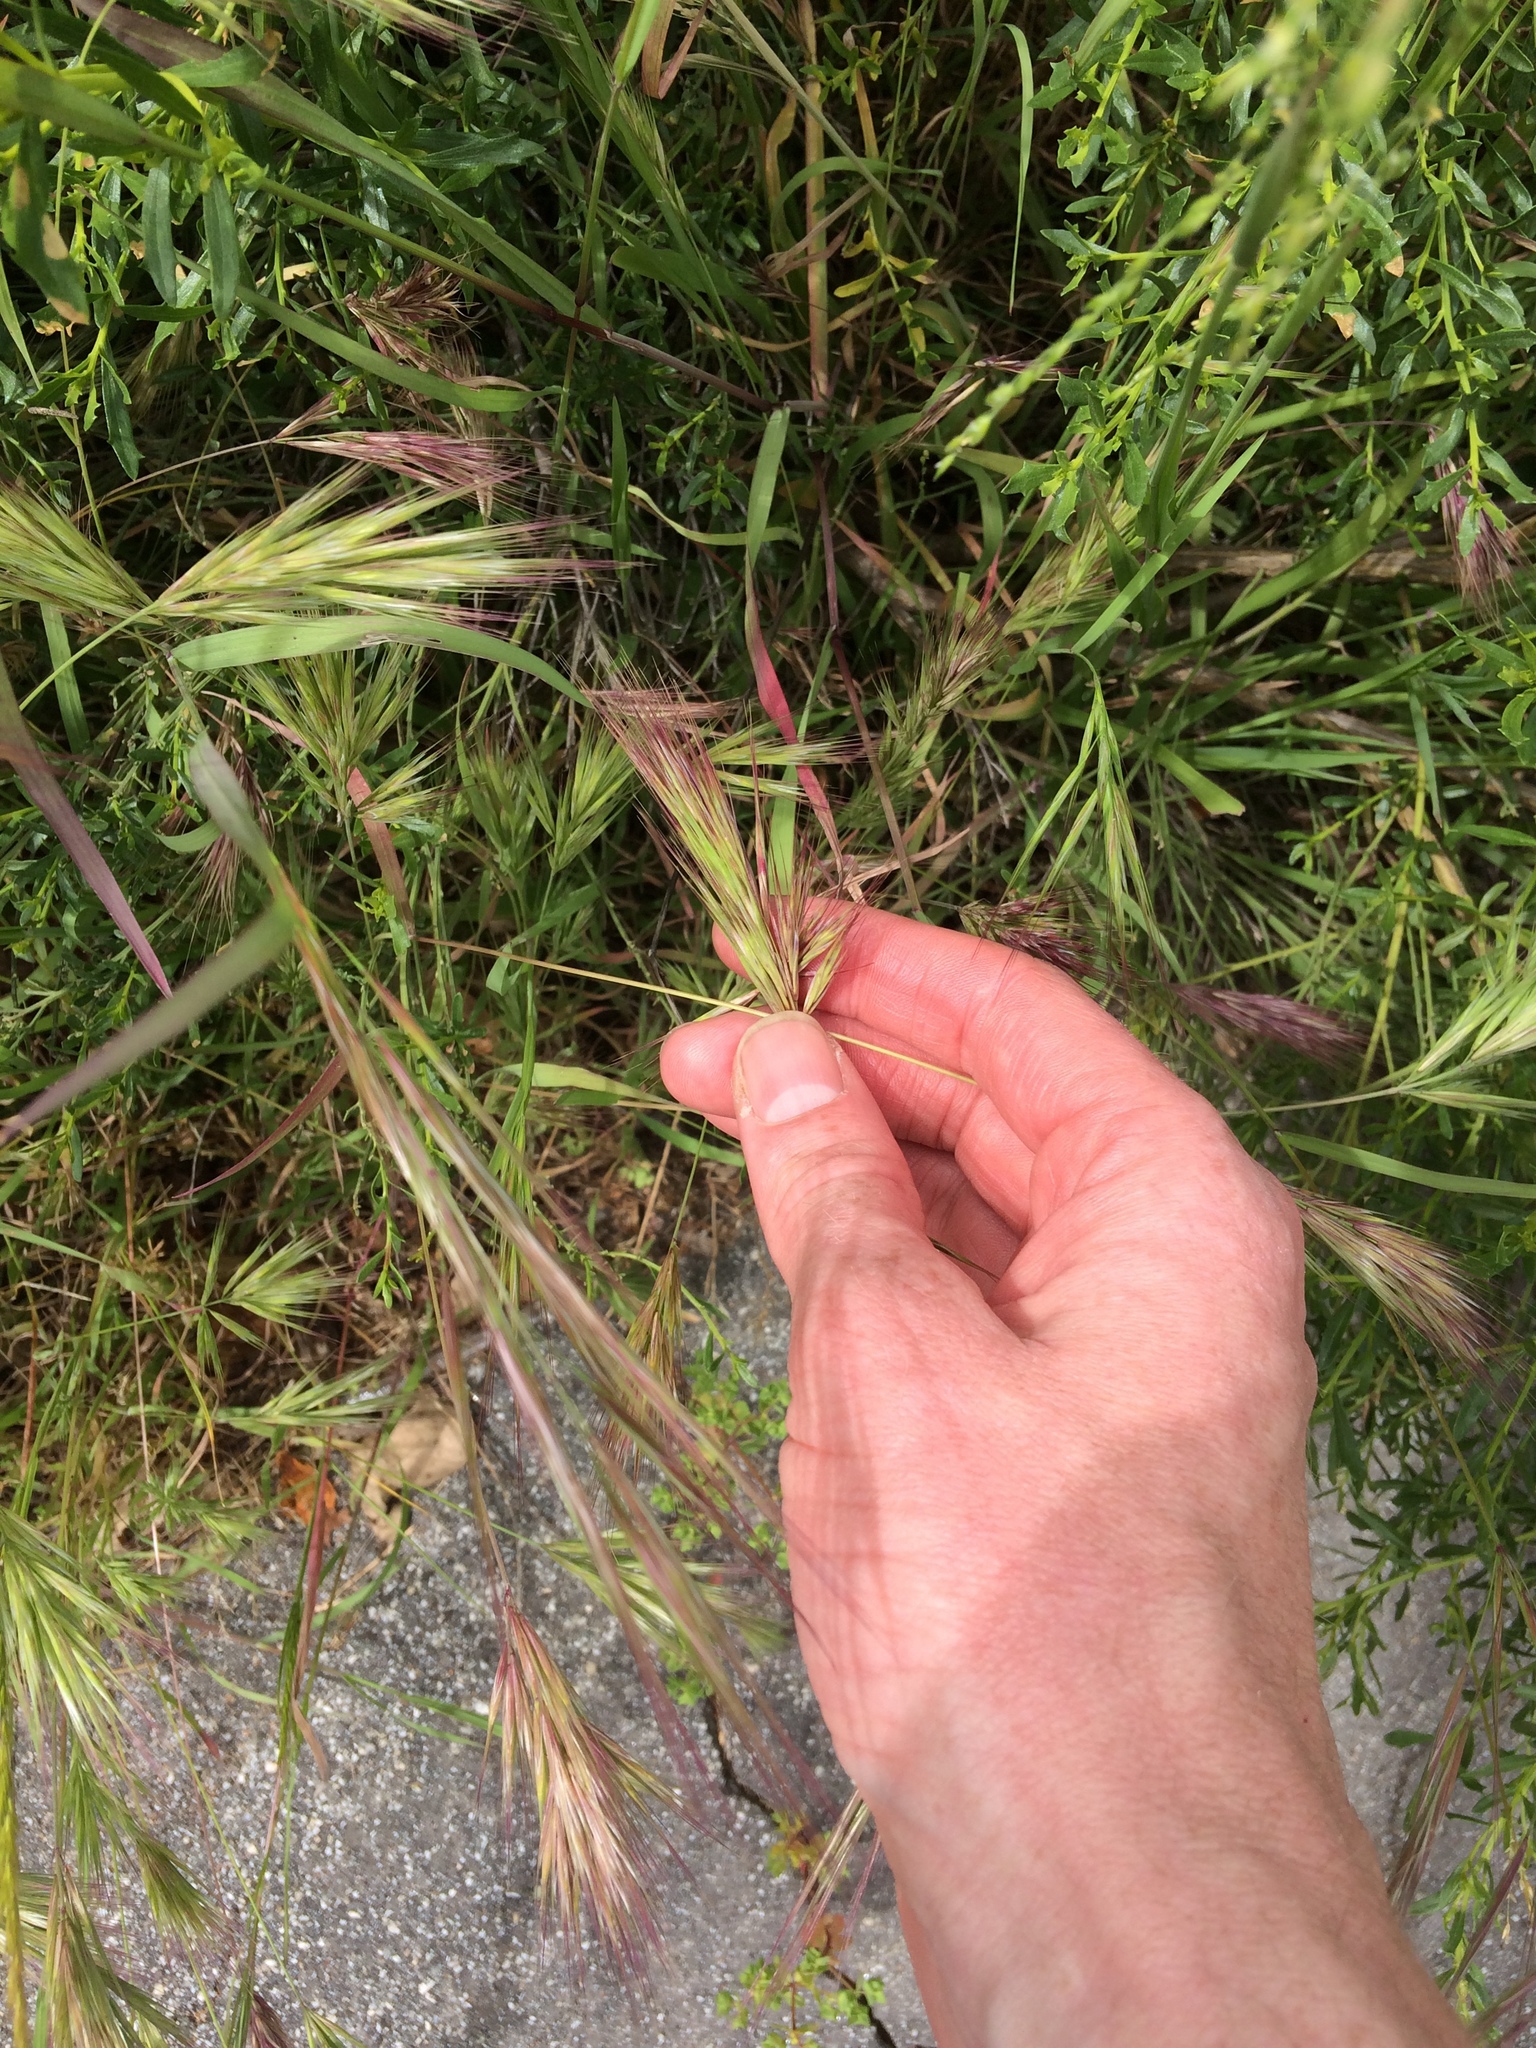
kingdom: Plantae
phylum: Tracheophyta
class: Liliopsida
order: Poales
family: Poaceae
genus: Bromus
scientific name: Bromus rubens
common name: Red brome
